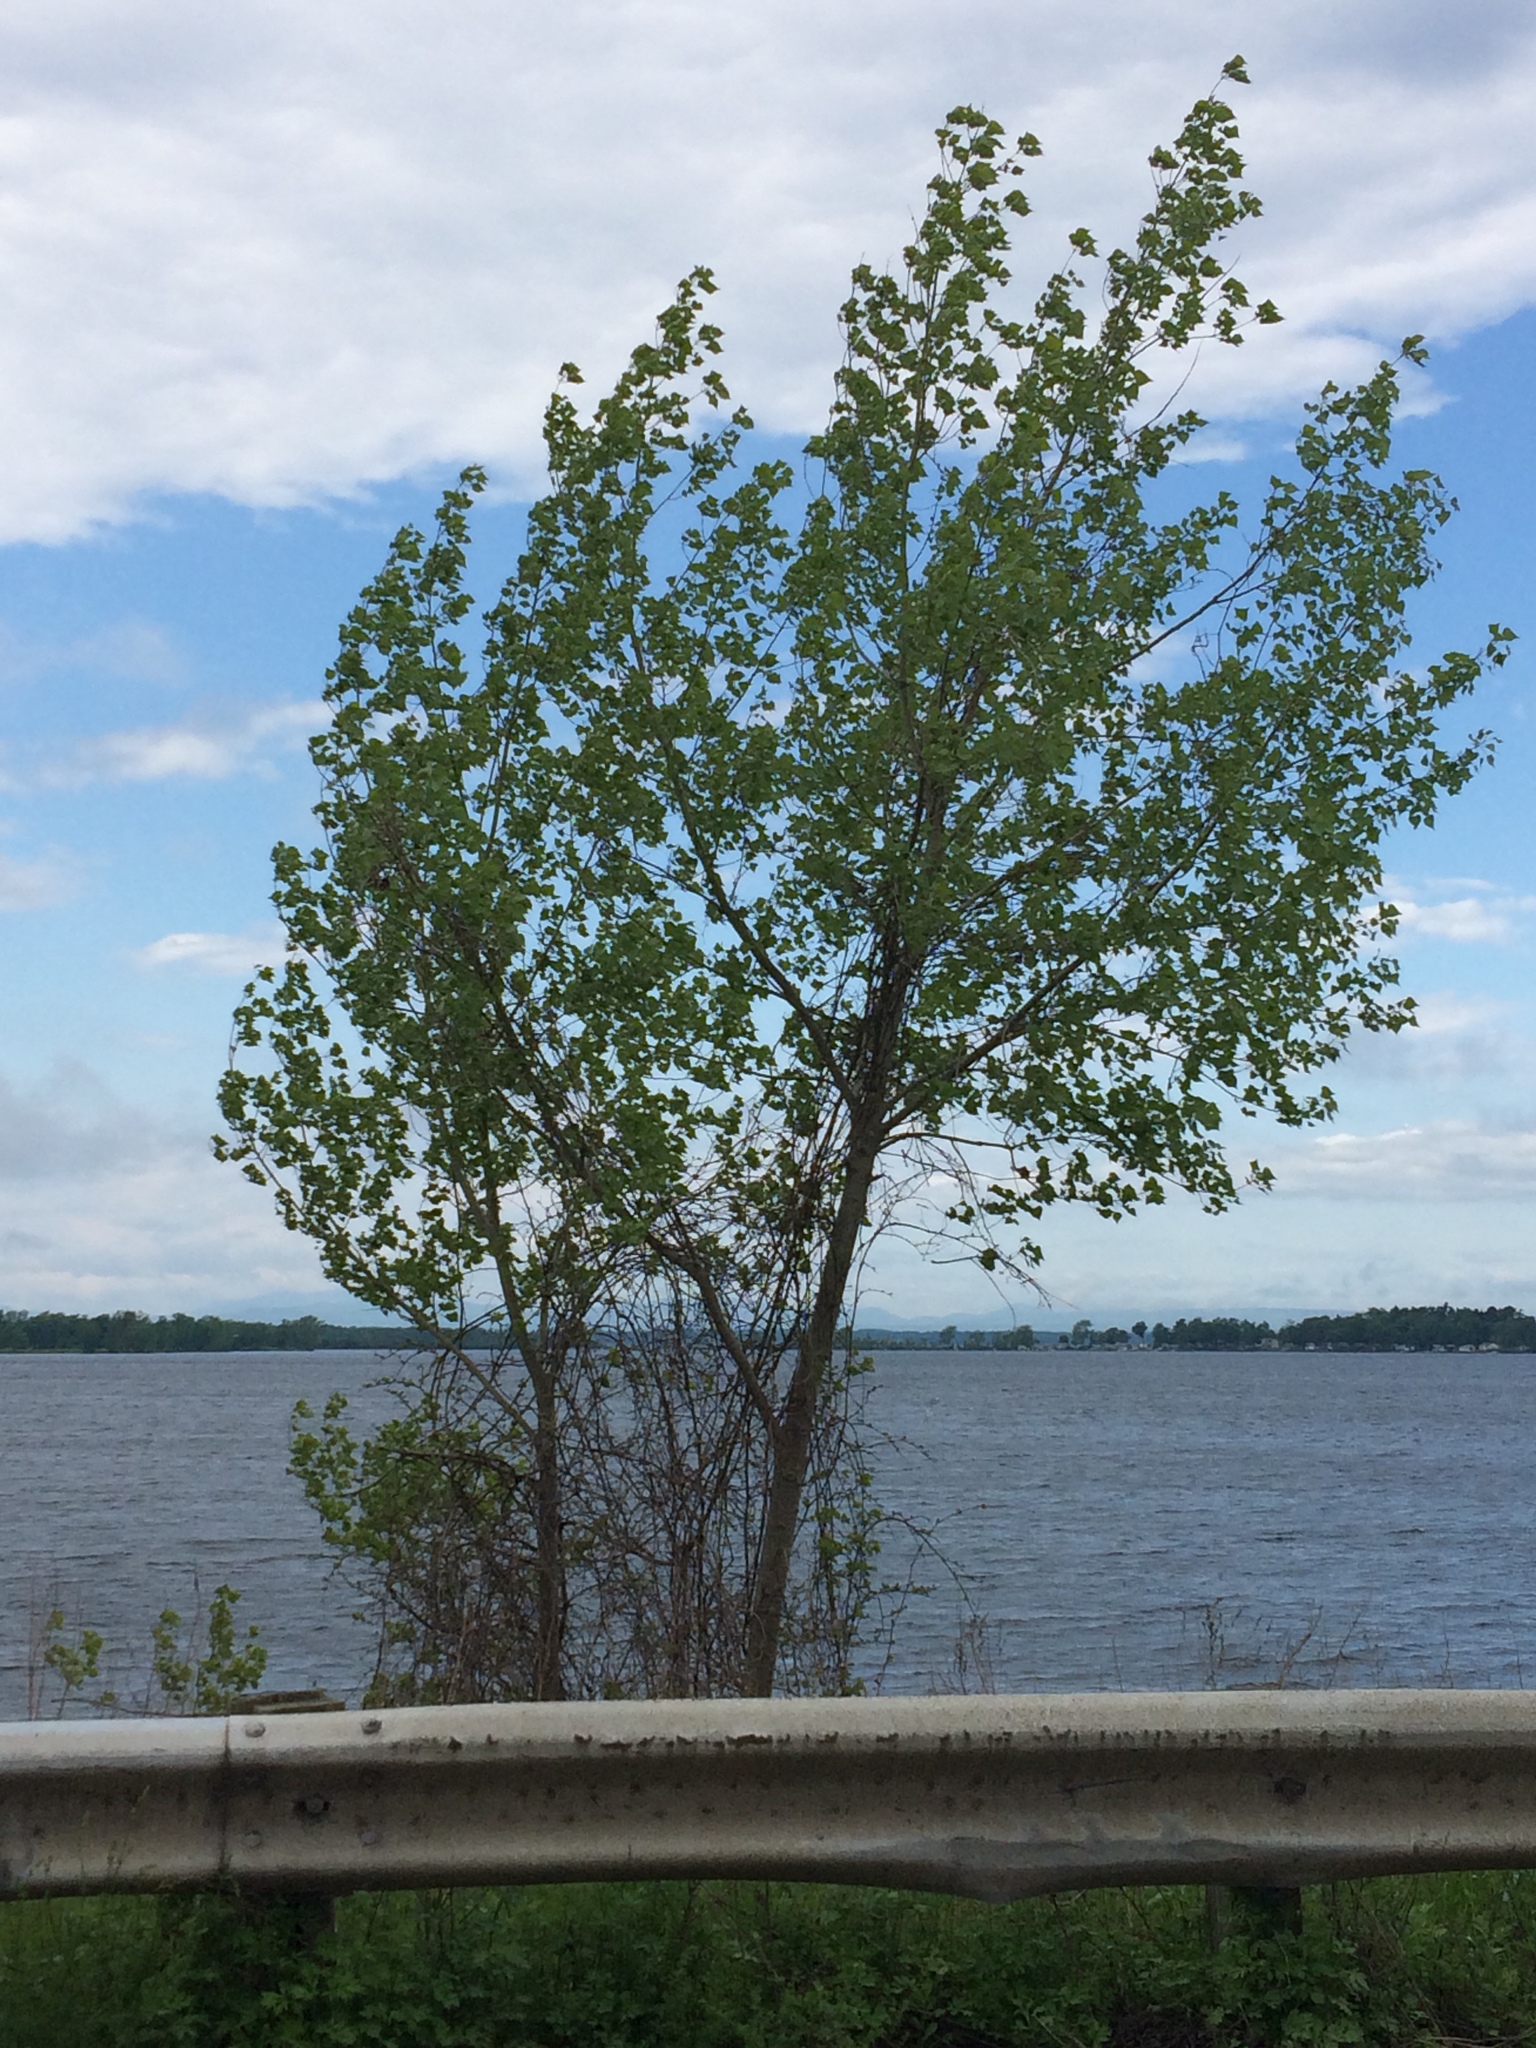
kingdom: Plantae
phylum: Tracheophyta
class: Magnoliopsida
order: Malpighiales
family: Salicaceae
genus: Populus
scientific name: Populus deltoides
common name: Eastern cottonwood
